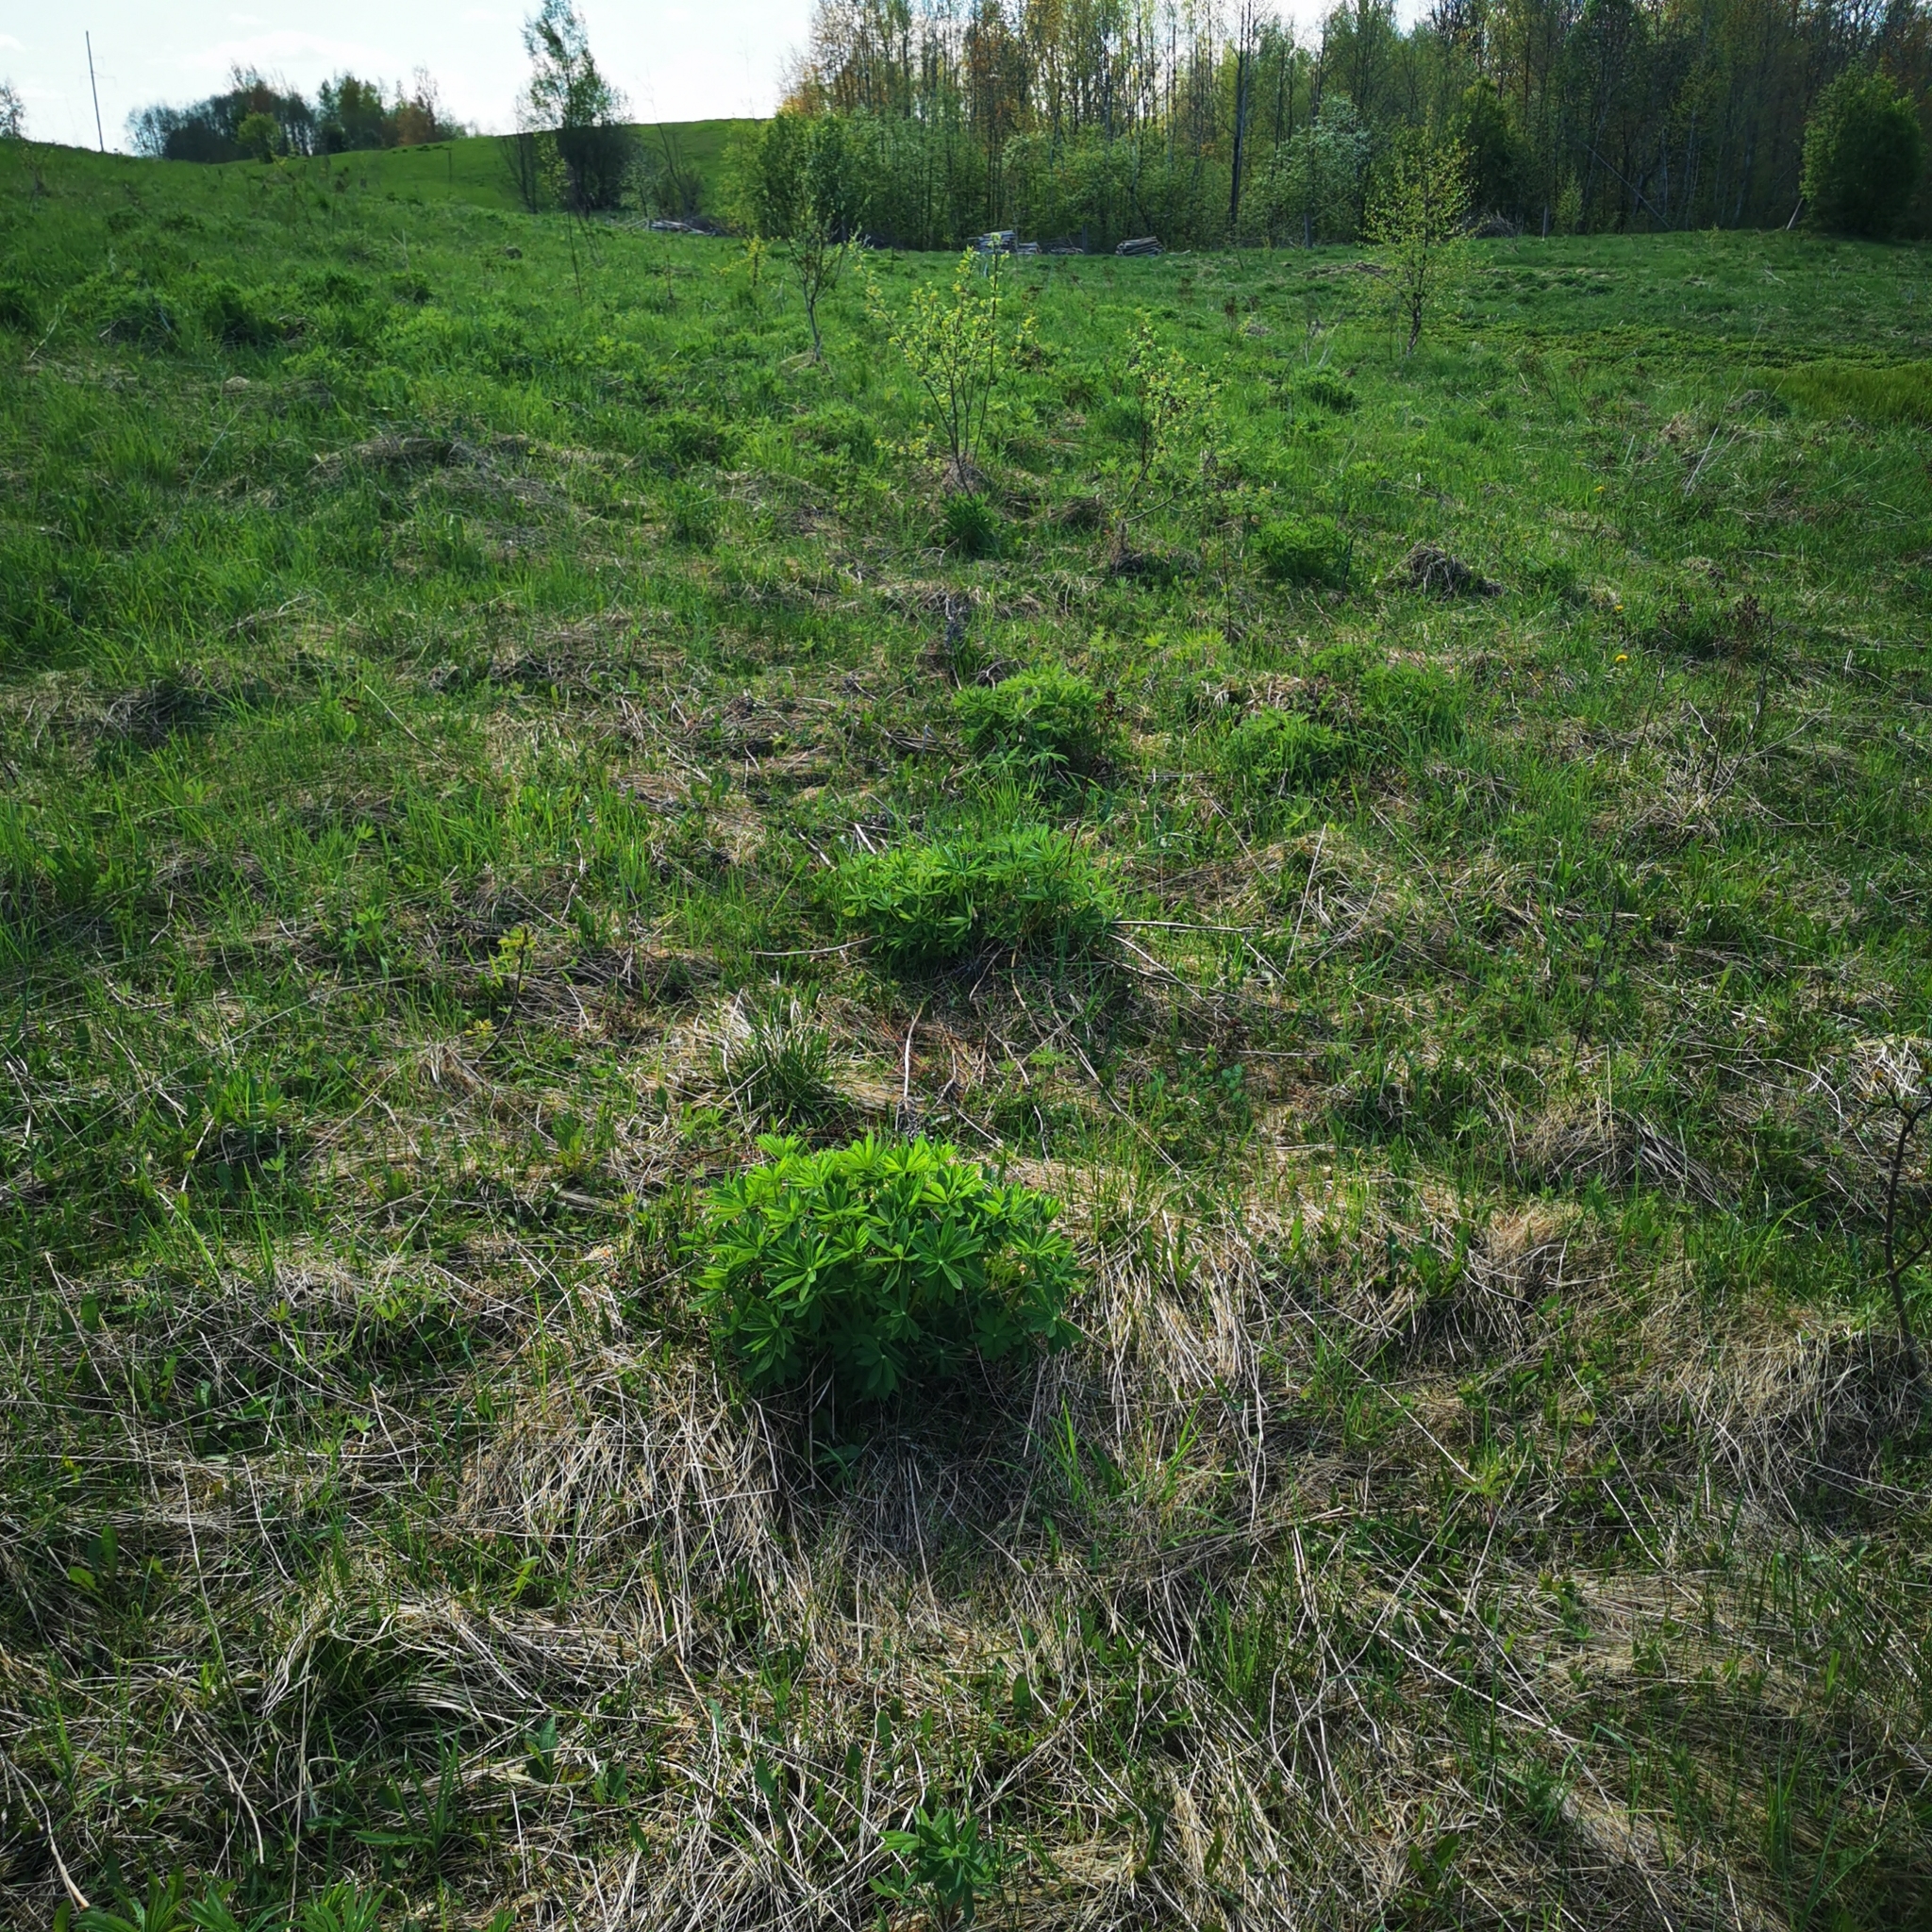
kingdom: Plantae
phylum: Tracheophyta
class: Magnoliopsida
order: Fabales
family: Fabaceae
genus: Lupinus
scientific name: Lupinus polyphyllus
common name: Garden lupin
